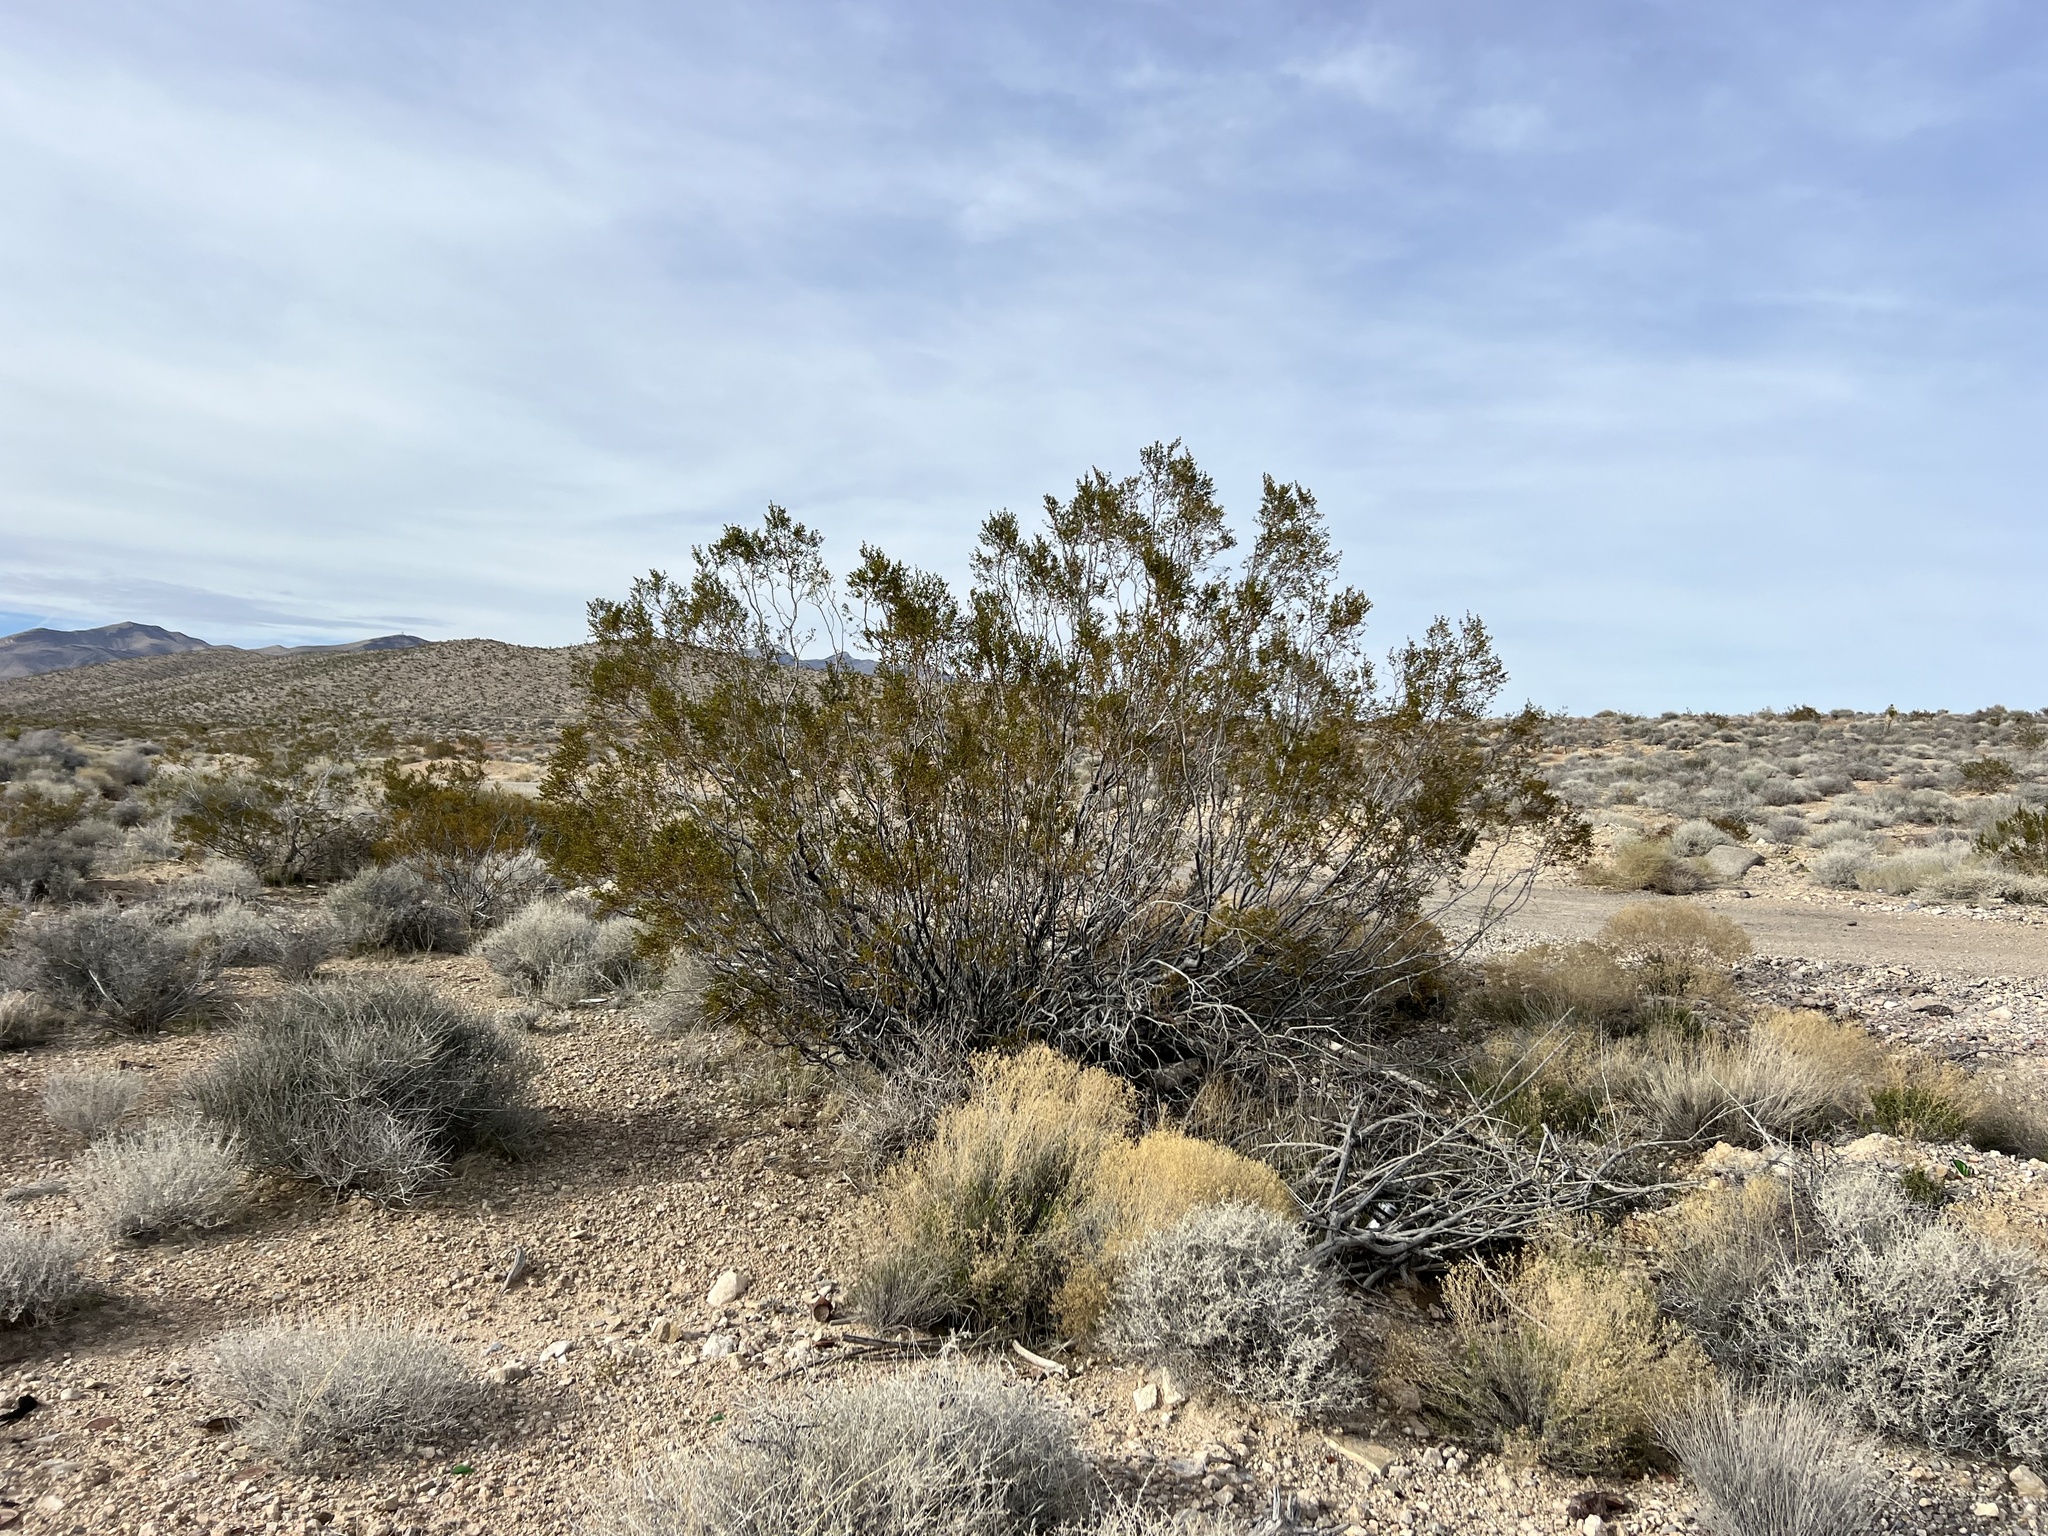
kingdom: Plantae
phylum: Tracheophyta
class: Magnoliopsida
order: Zygophyllales
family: Zygophyllaceae
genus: Larrea
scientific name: Larrea tridentata
